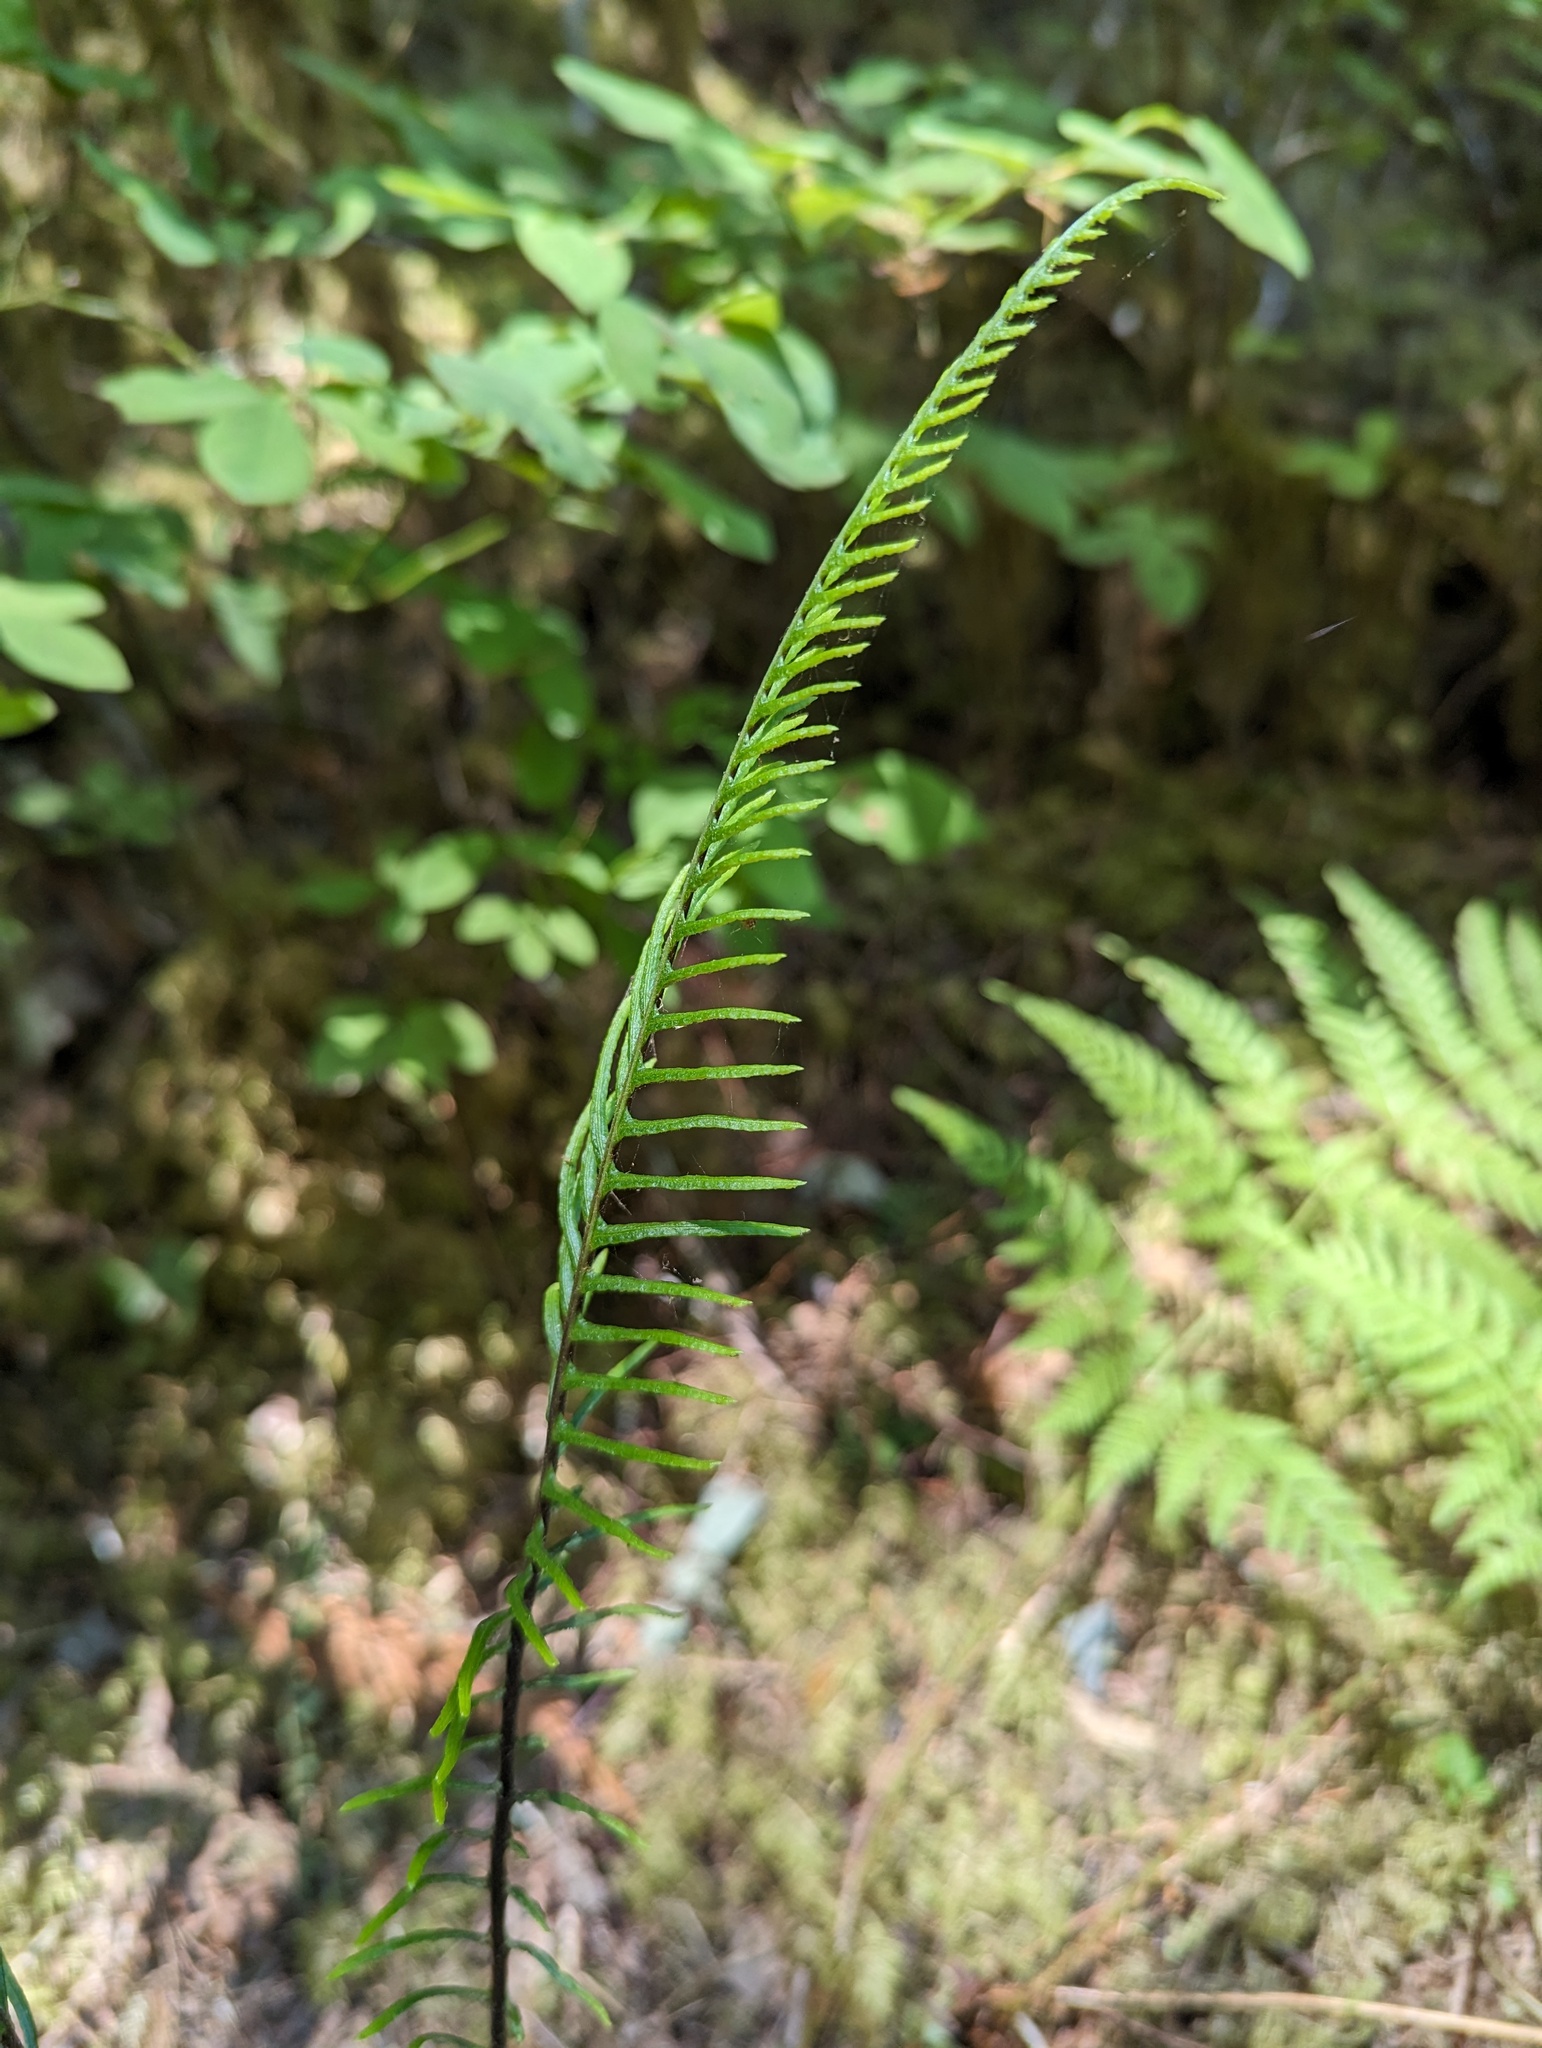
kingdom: Plantae
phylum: Tracheophyta
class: Polypodiopsida
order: Polypodiales
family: Blechnaceae
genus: Struthiopteris
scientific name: Struthiopteris spicant
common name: Deer fern
